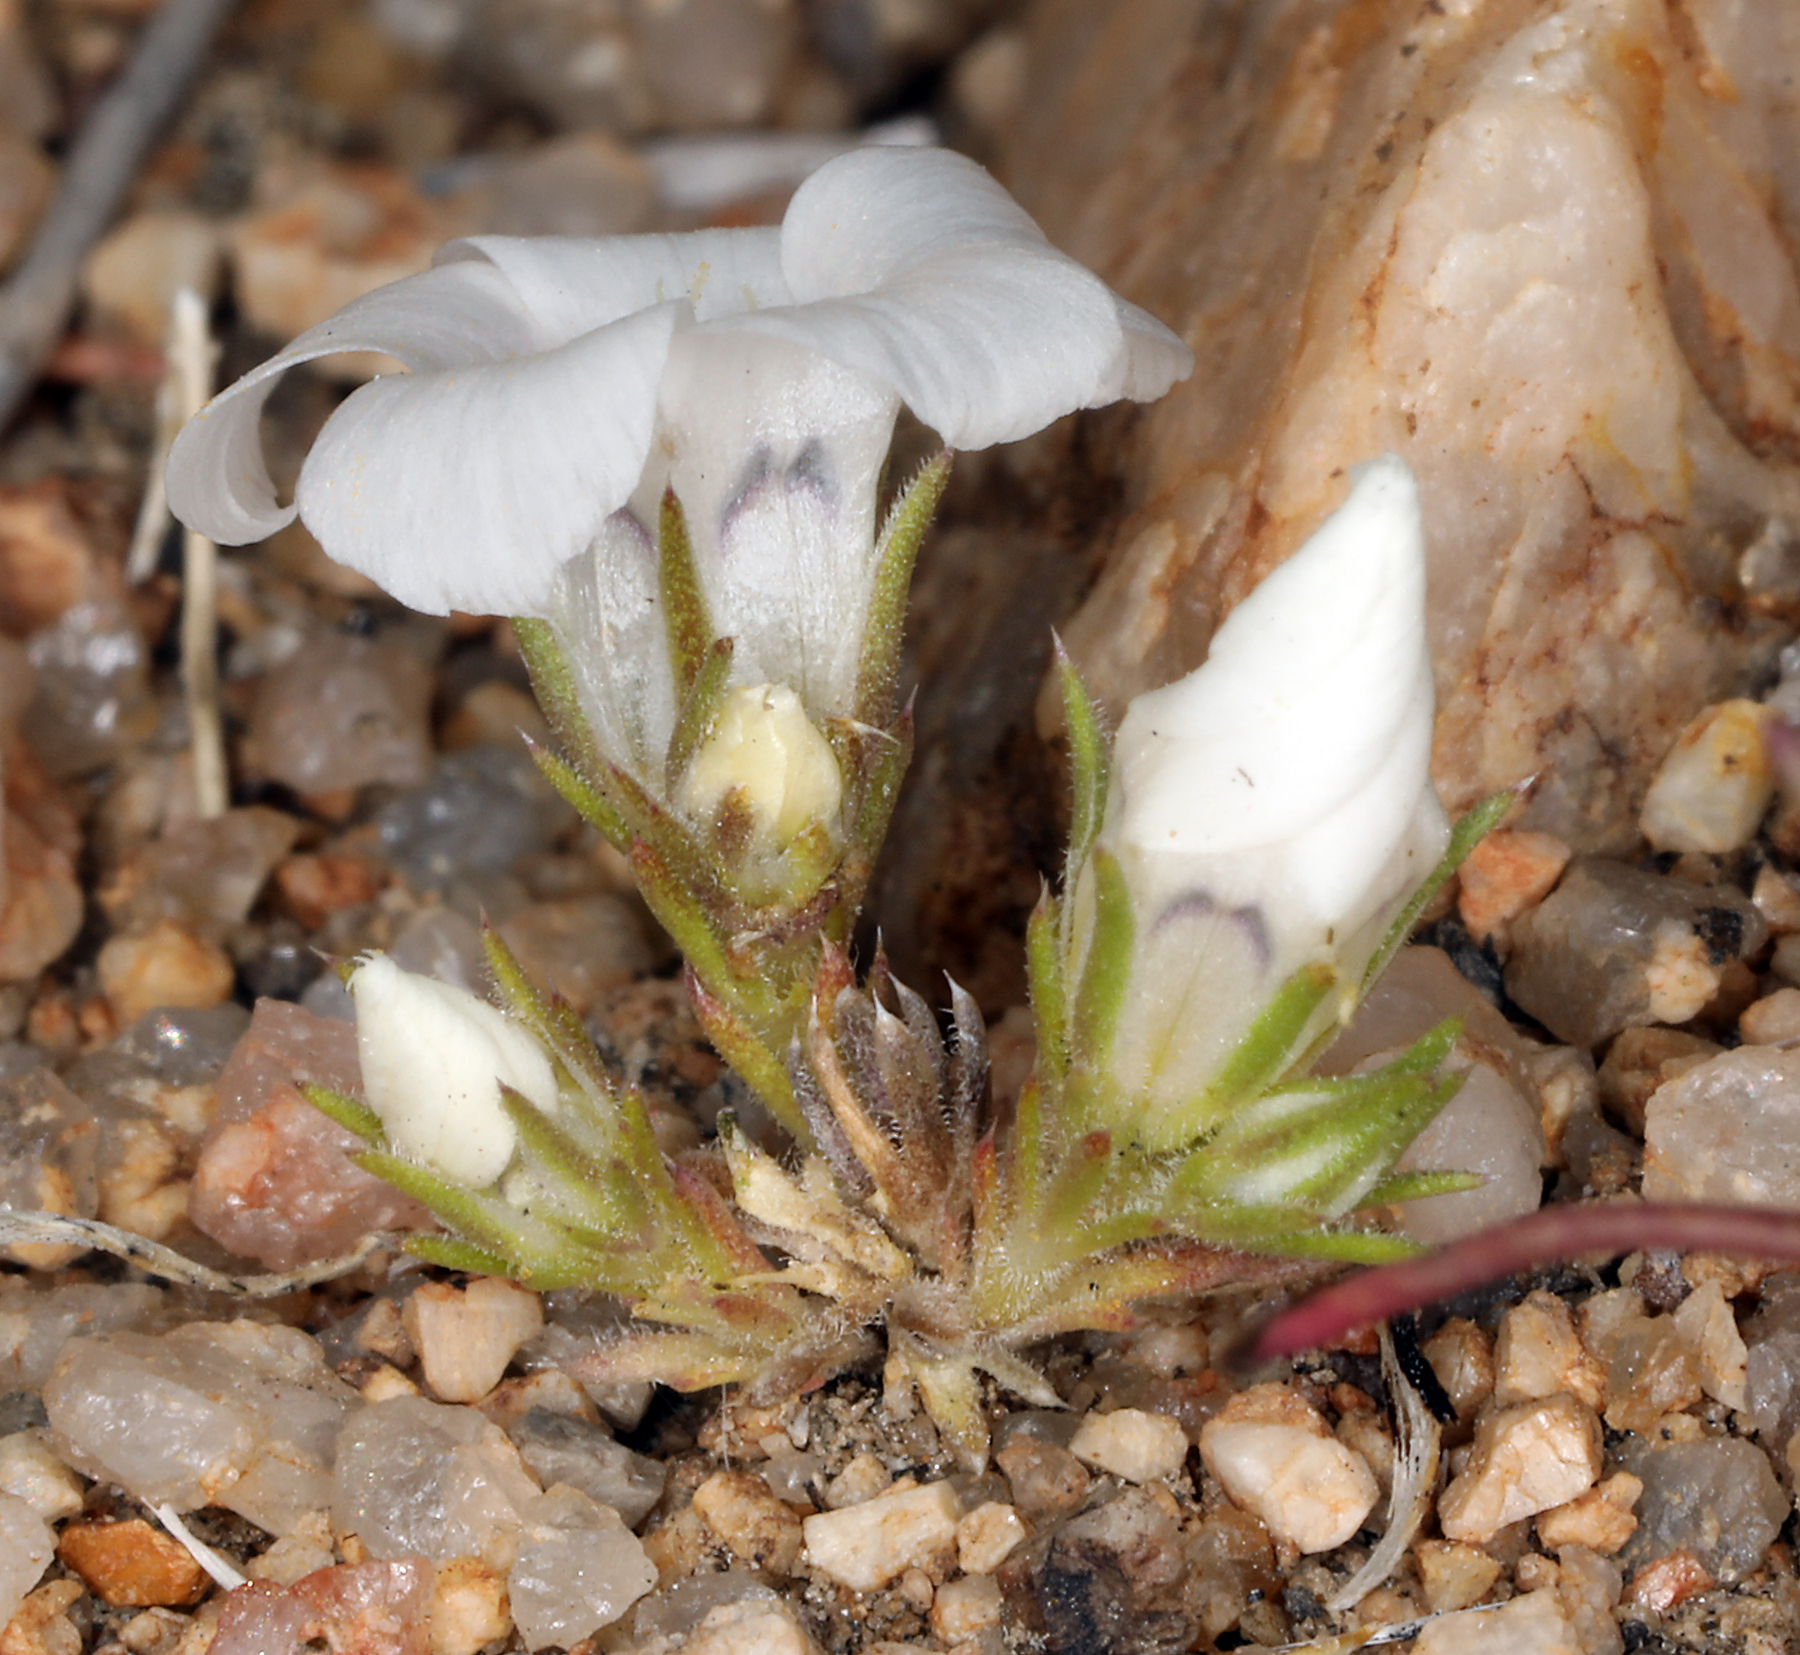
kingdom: Plantae
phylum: Tracheophyta
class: Magnoliopsida
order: Ericales
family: Polemoniaceae
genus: Linanthus
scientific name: Linanthus parryae
